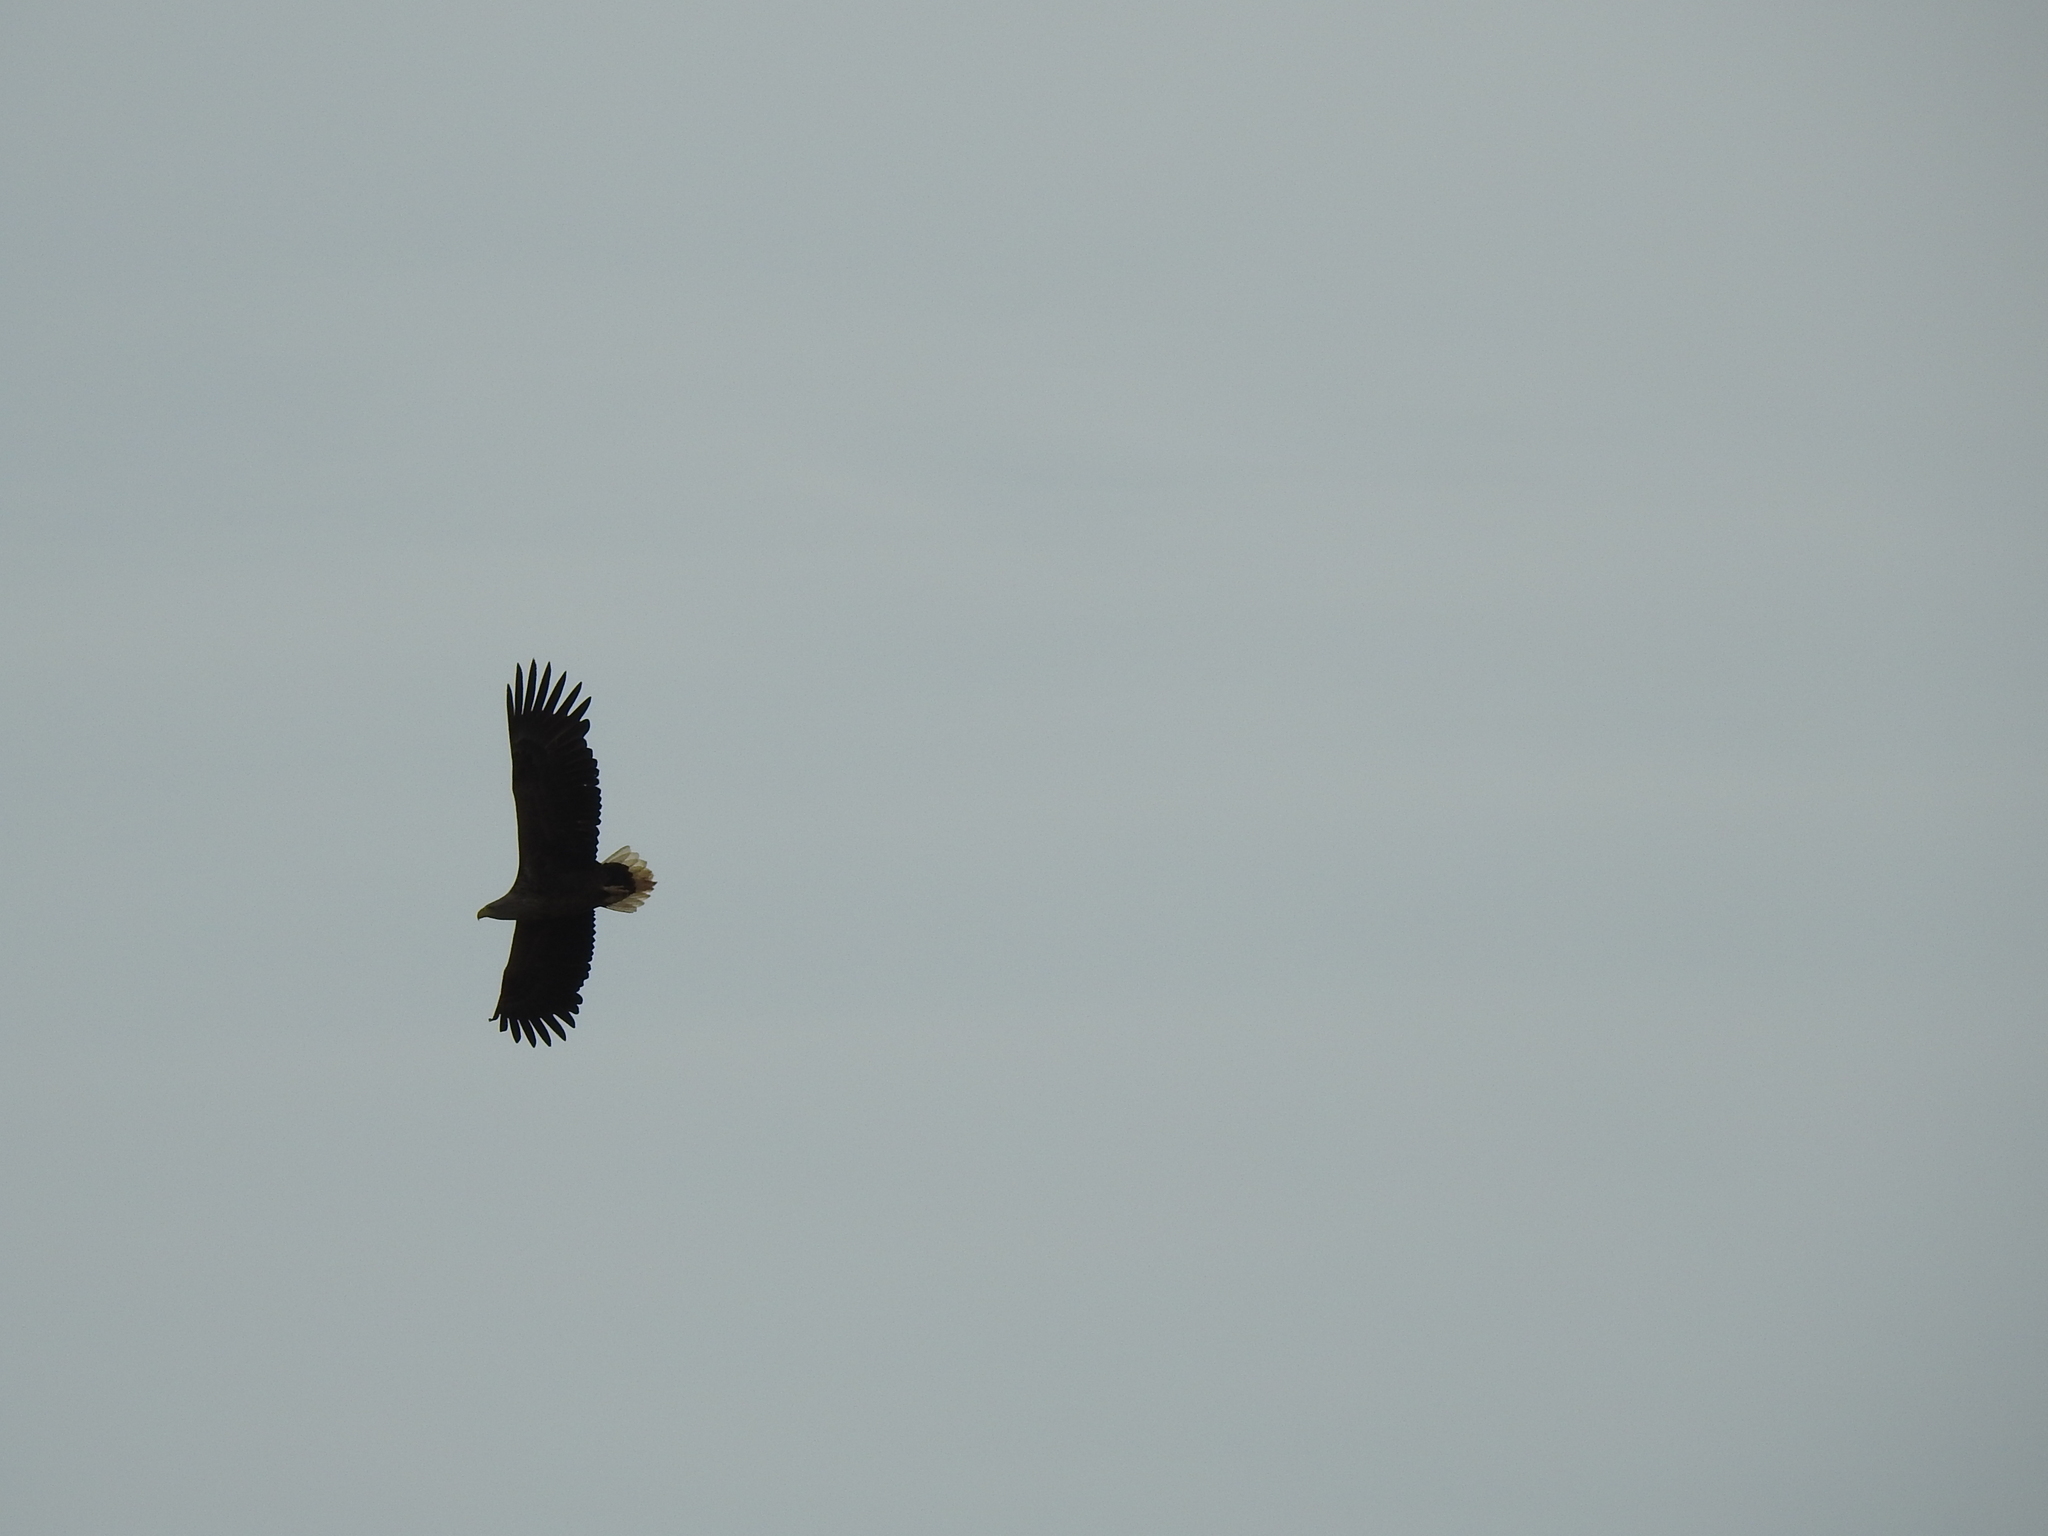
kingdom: Animalia
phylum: Chordata
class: Aves
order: Accipitriformes
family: Accipitridae
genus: Haliaeetus
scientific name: Haliaeetus albicilla
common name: White-tailed eagle
